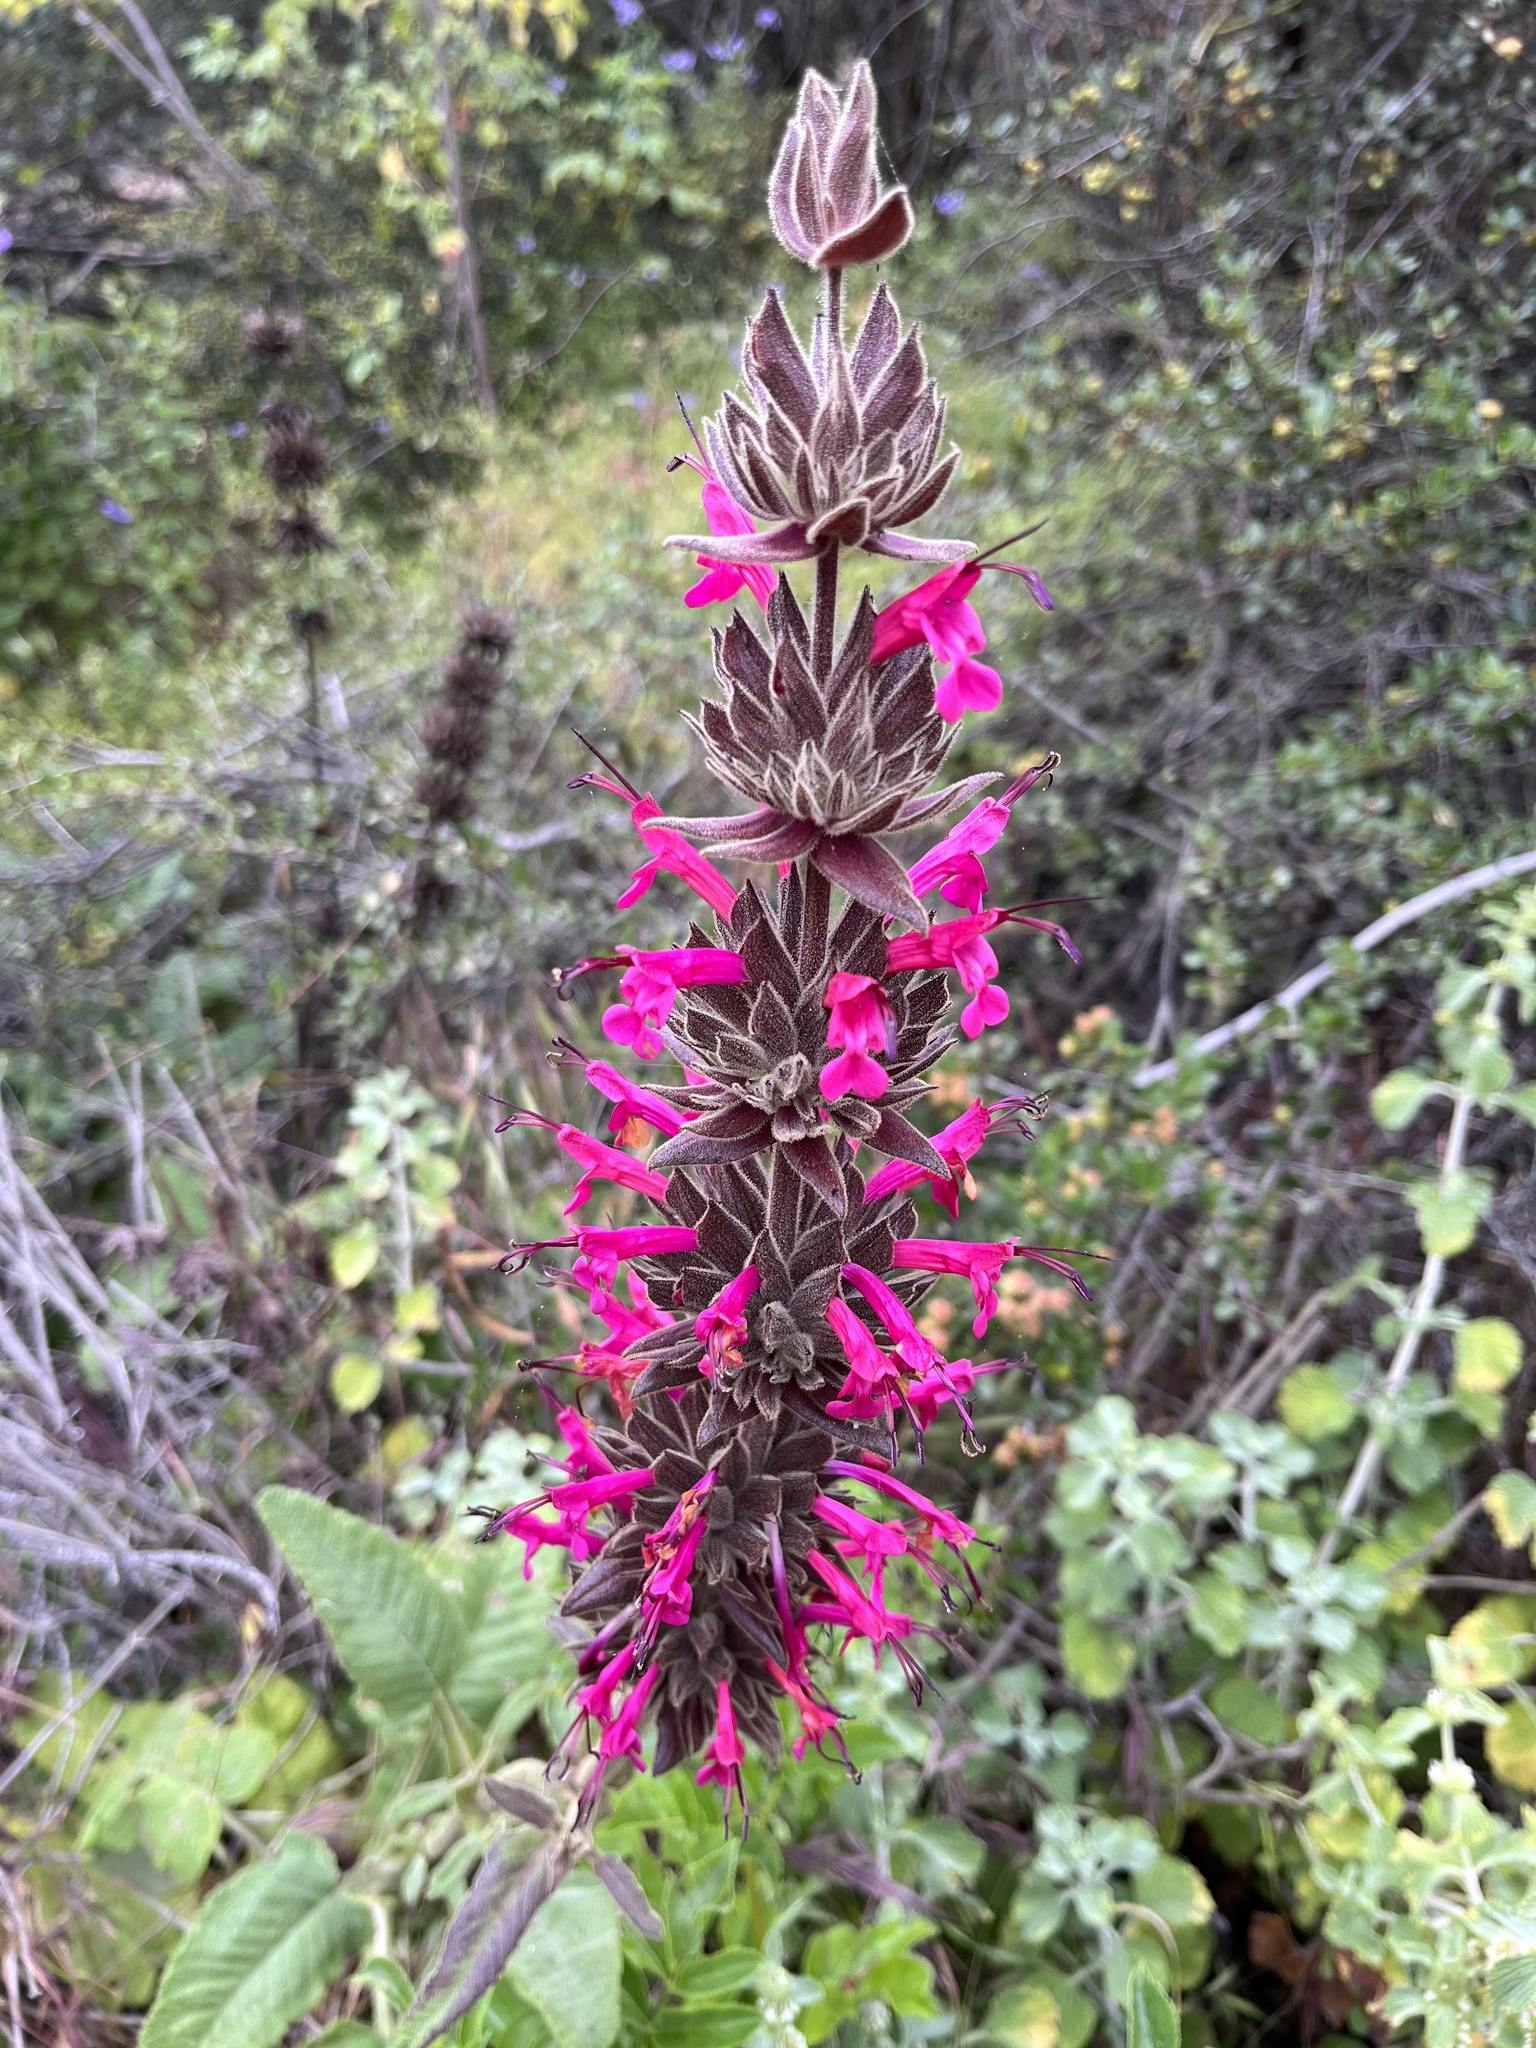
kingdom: Plantae
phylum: Tracheophyta
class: Magnoliopsida
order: Lamiales
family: Lamiaceae
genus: Salvia
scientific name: Salvia spathacea
